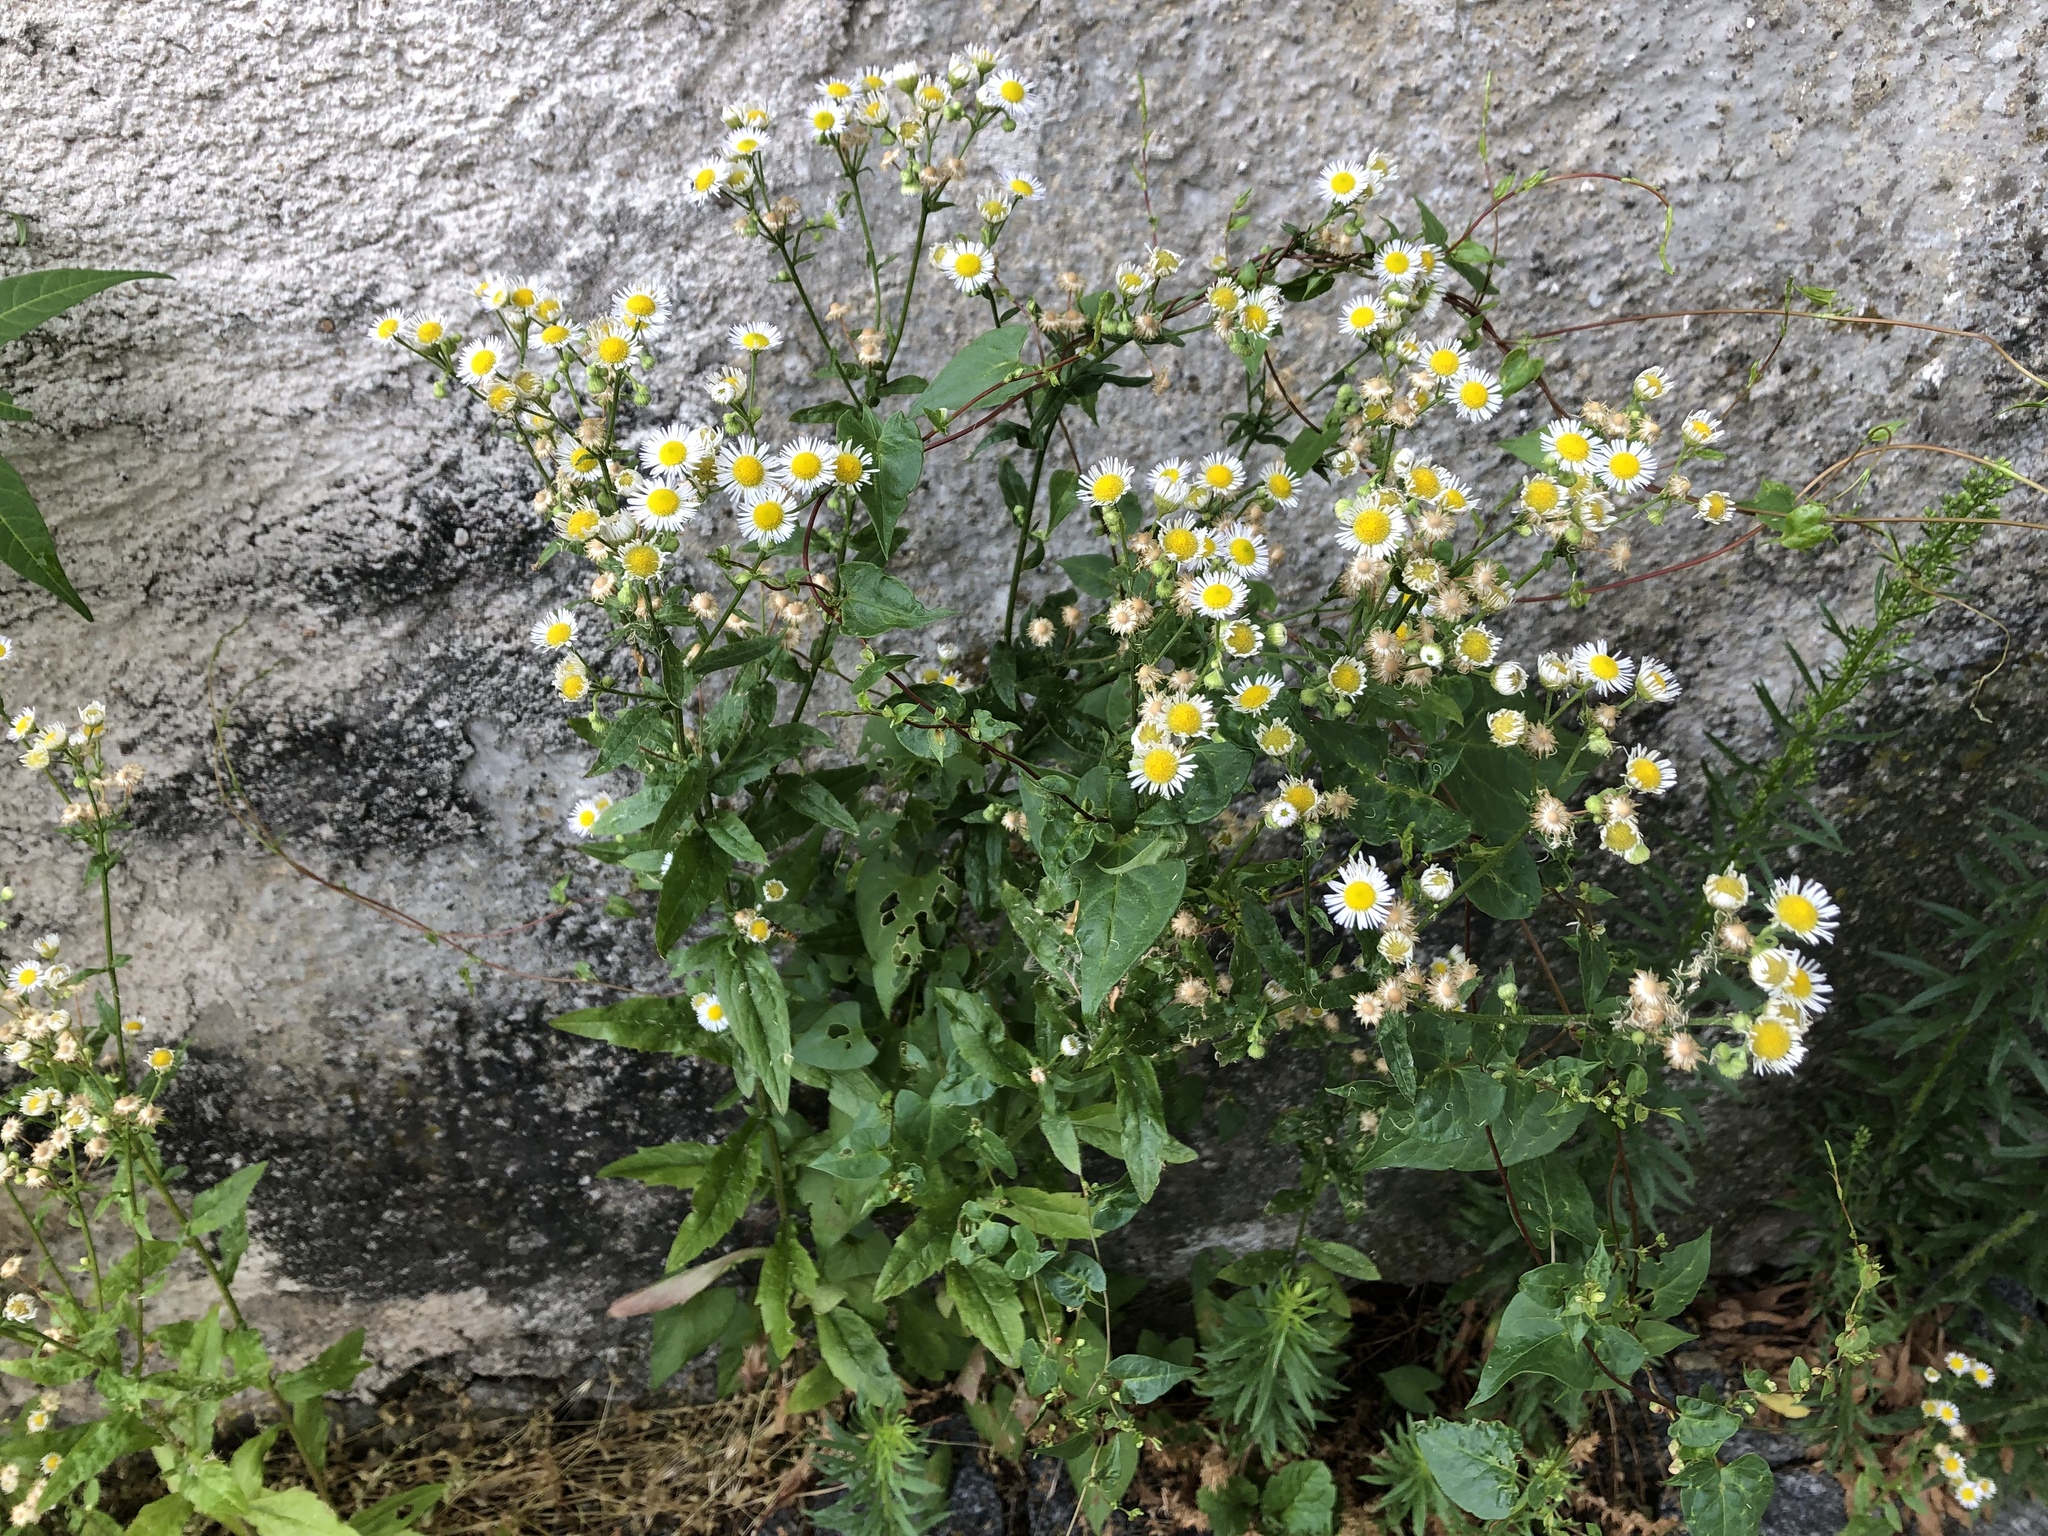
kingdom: Plantae
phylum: Tracheophyta
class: Magnoliopsida
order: Asterales
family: Asteraceae
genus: Erigeron
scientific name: Erigeron annuus
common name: Tall fleabane
